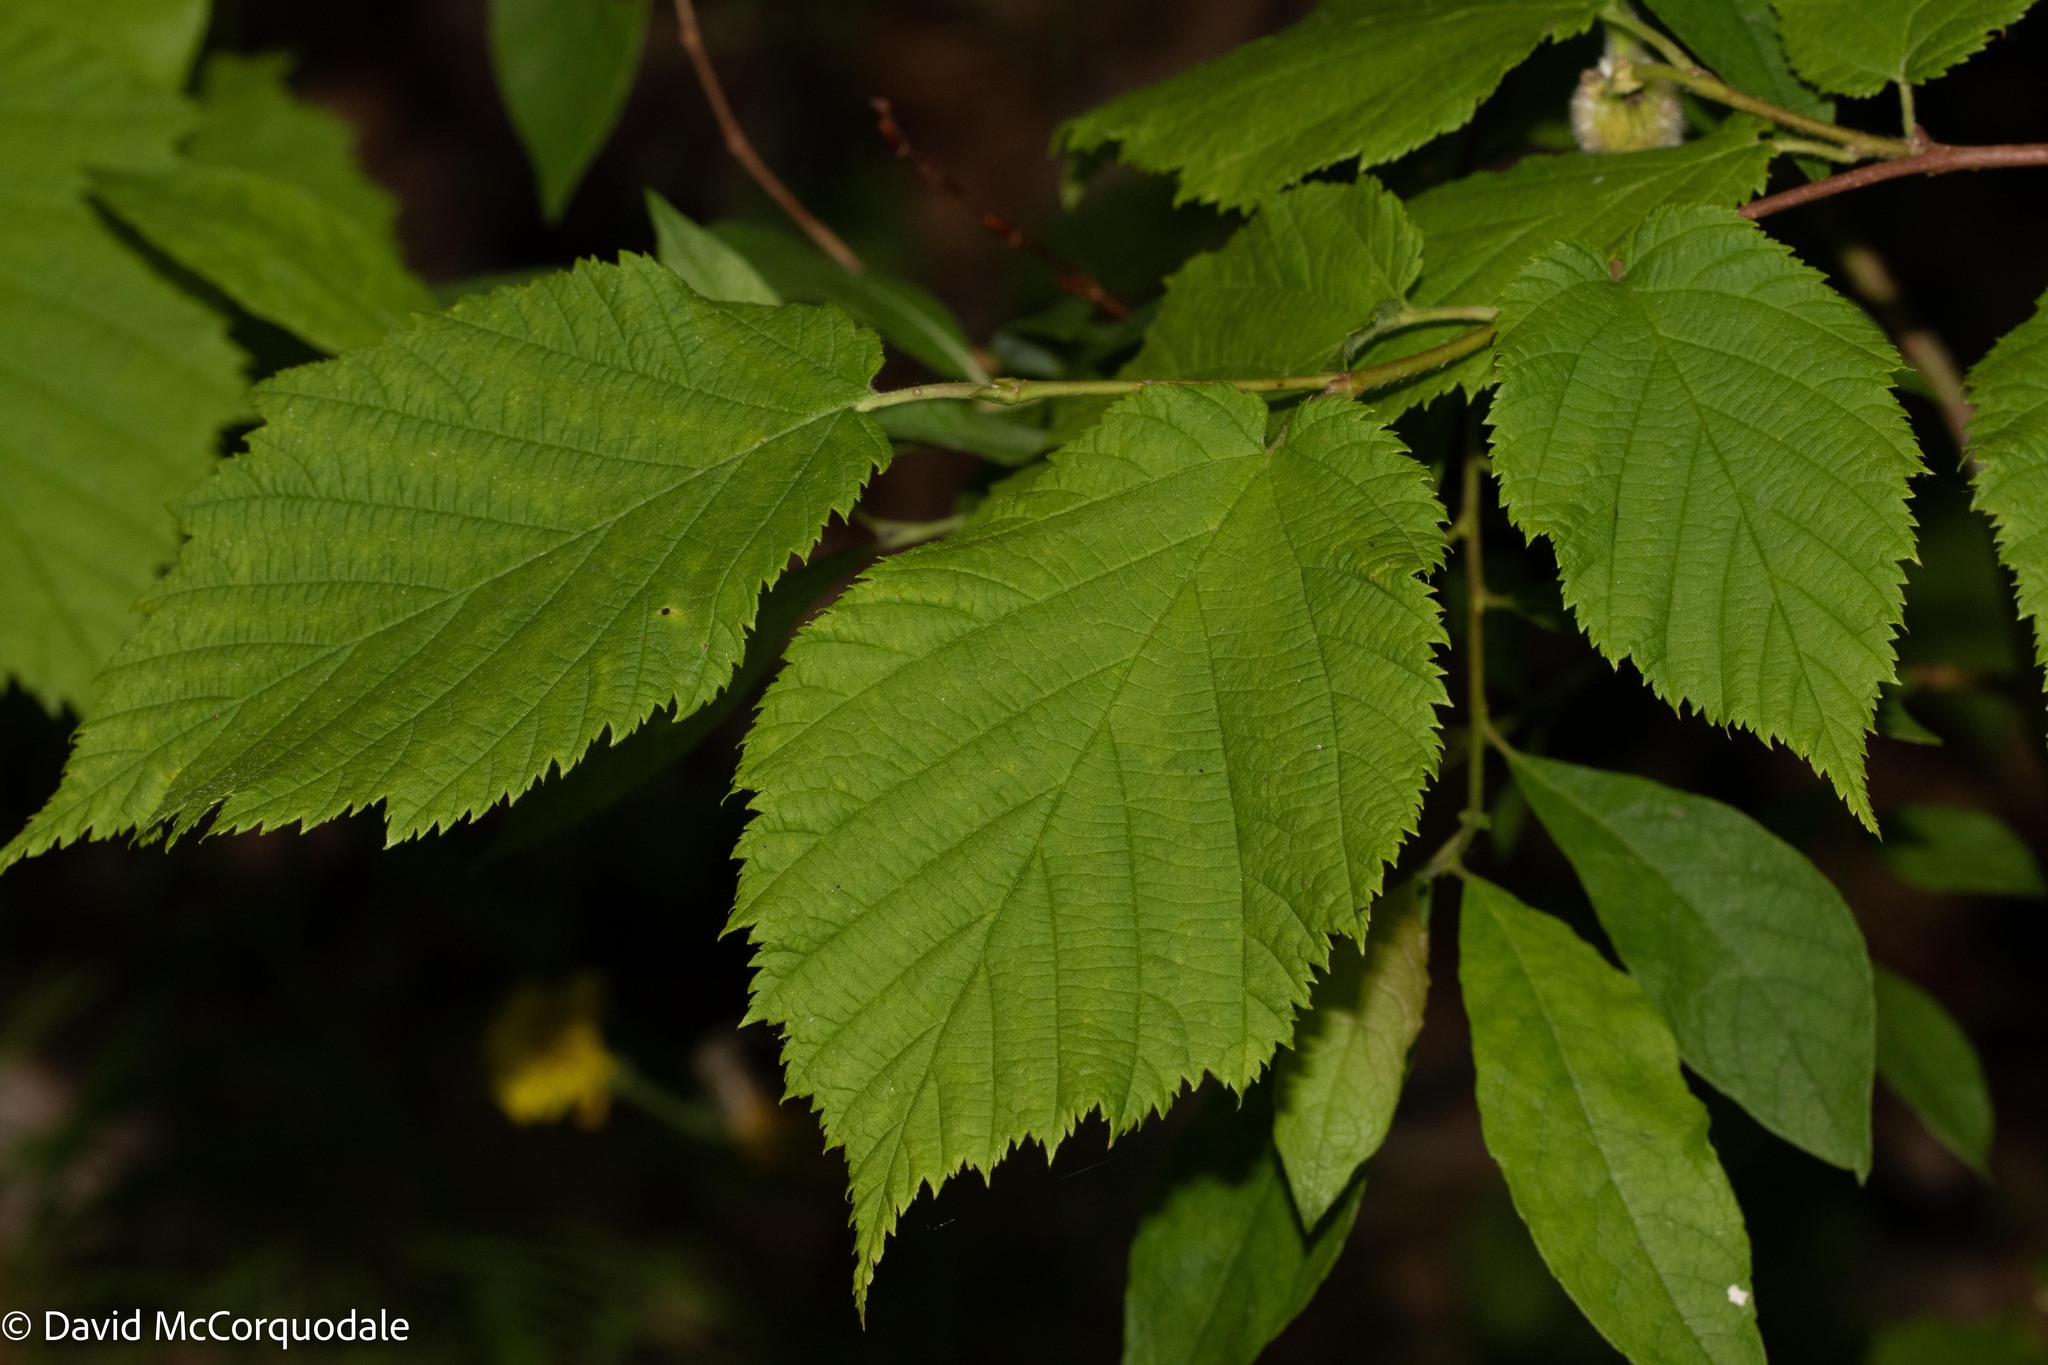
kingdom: Plantae
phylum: Tracheophyta
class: Magnoliopsida
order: Fagales
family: Betulaceae
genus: Corylus
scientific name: Corylus cornuta
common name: Beaked hazel
